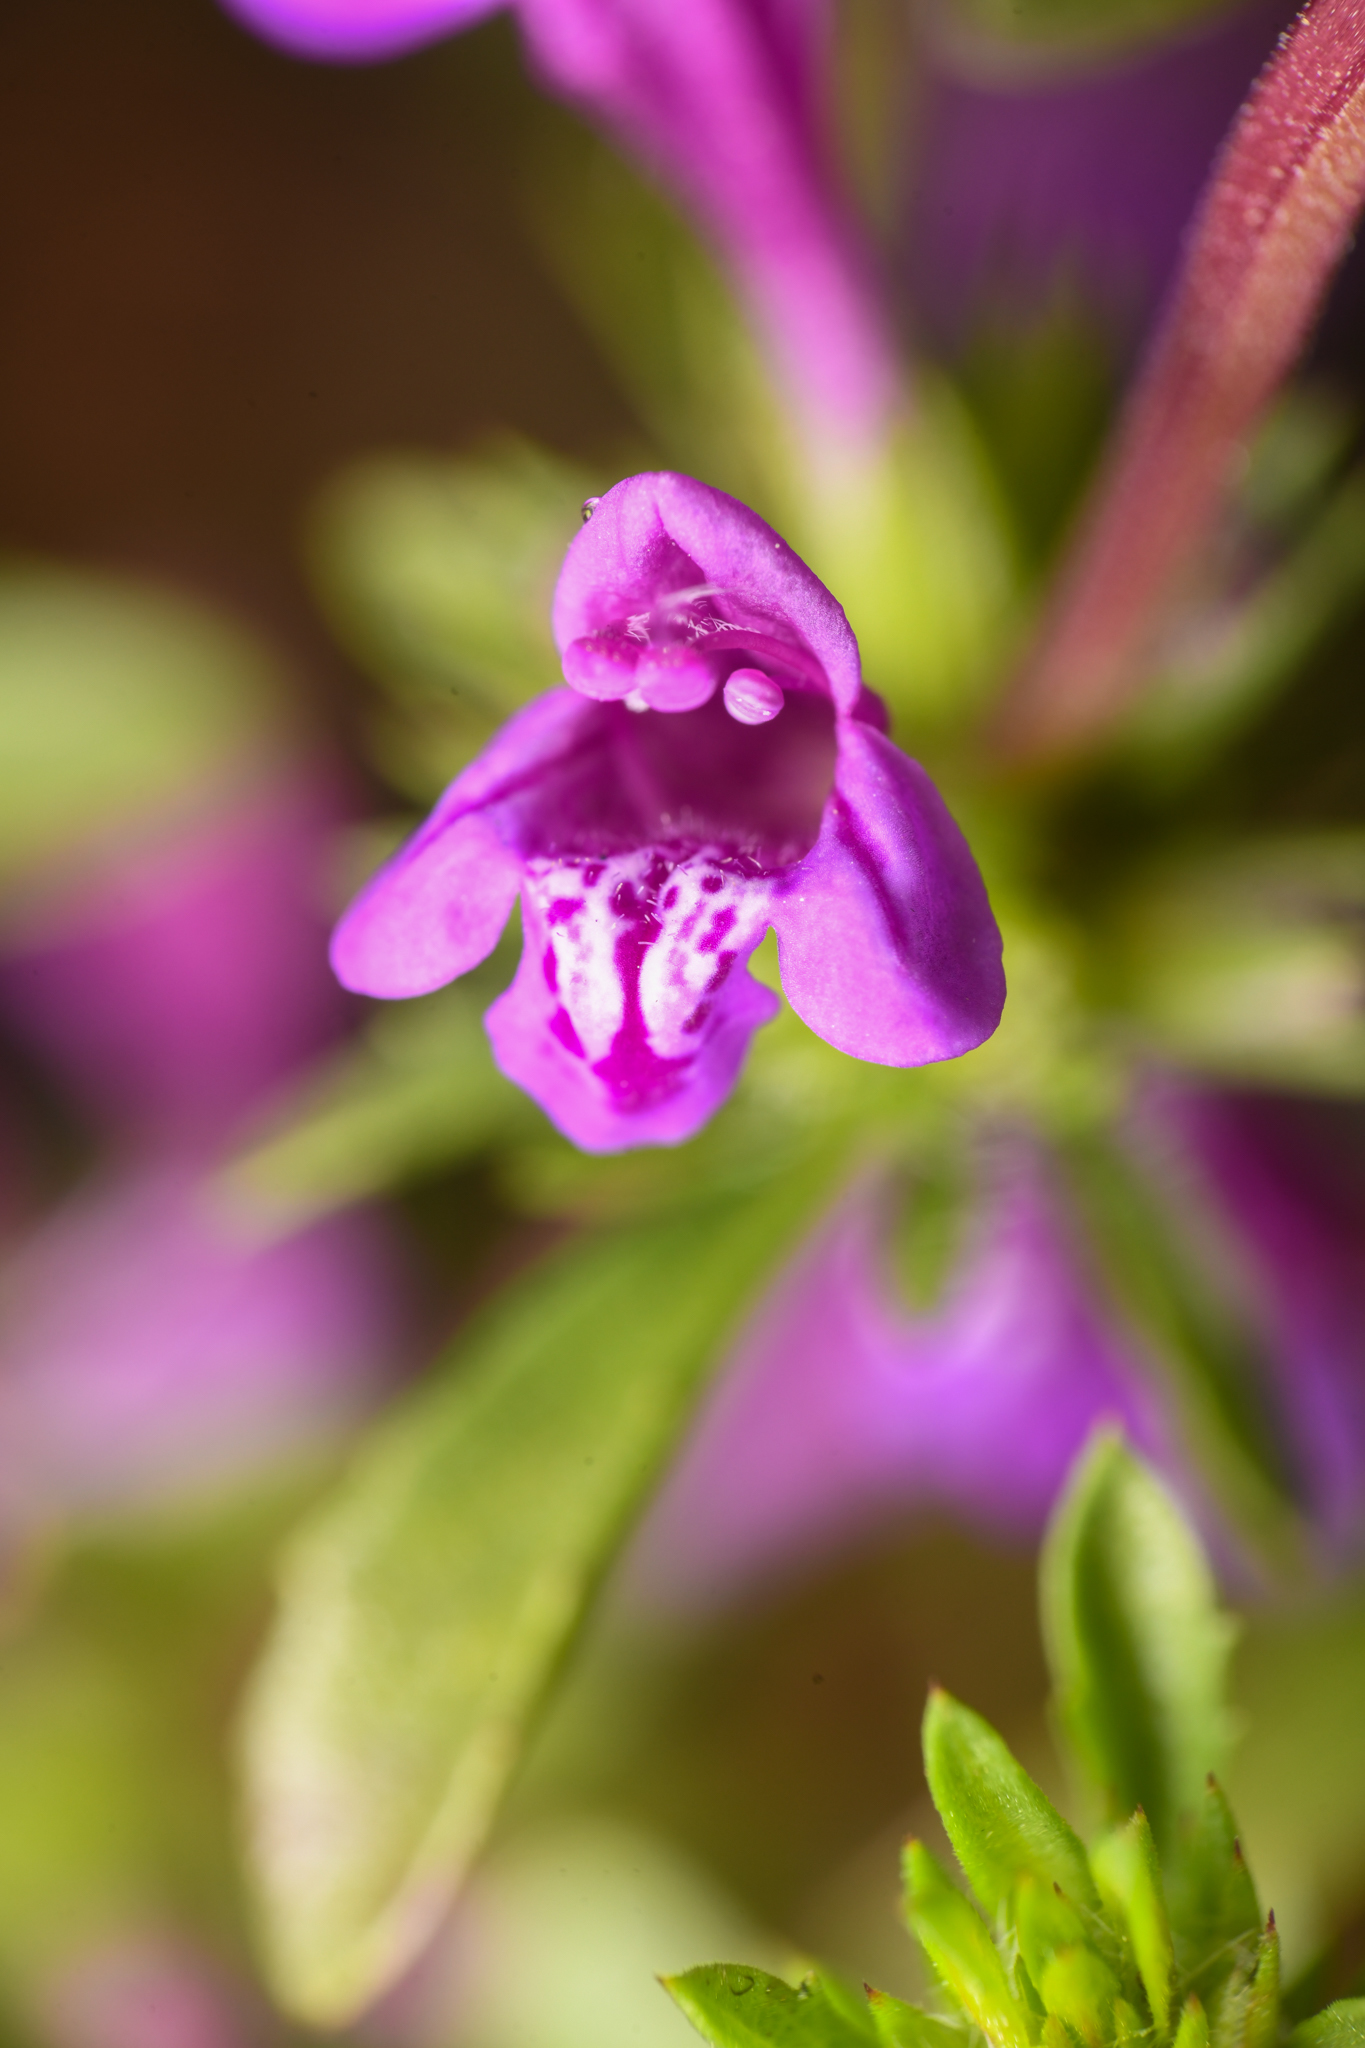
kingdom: Plantae
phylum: Tracheophyta
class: Magnoliopsida
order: Lamiales
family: Lamiaceae
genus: Pogogyne
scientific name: Pogogyne nudiuscula
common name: Otay mesa-mint
